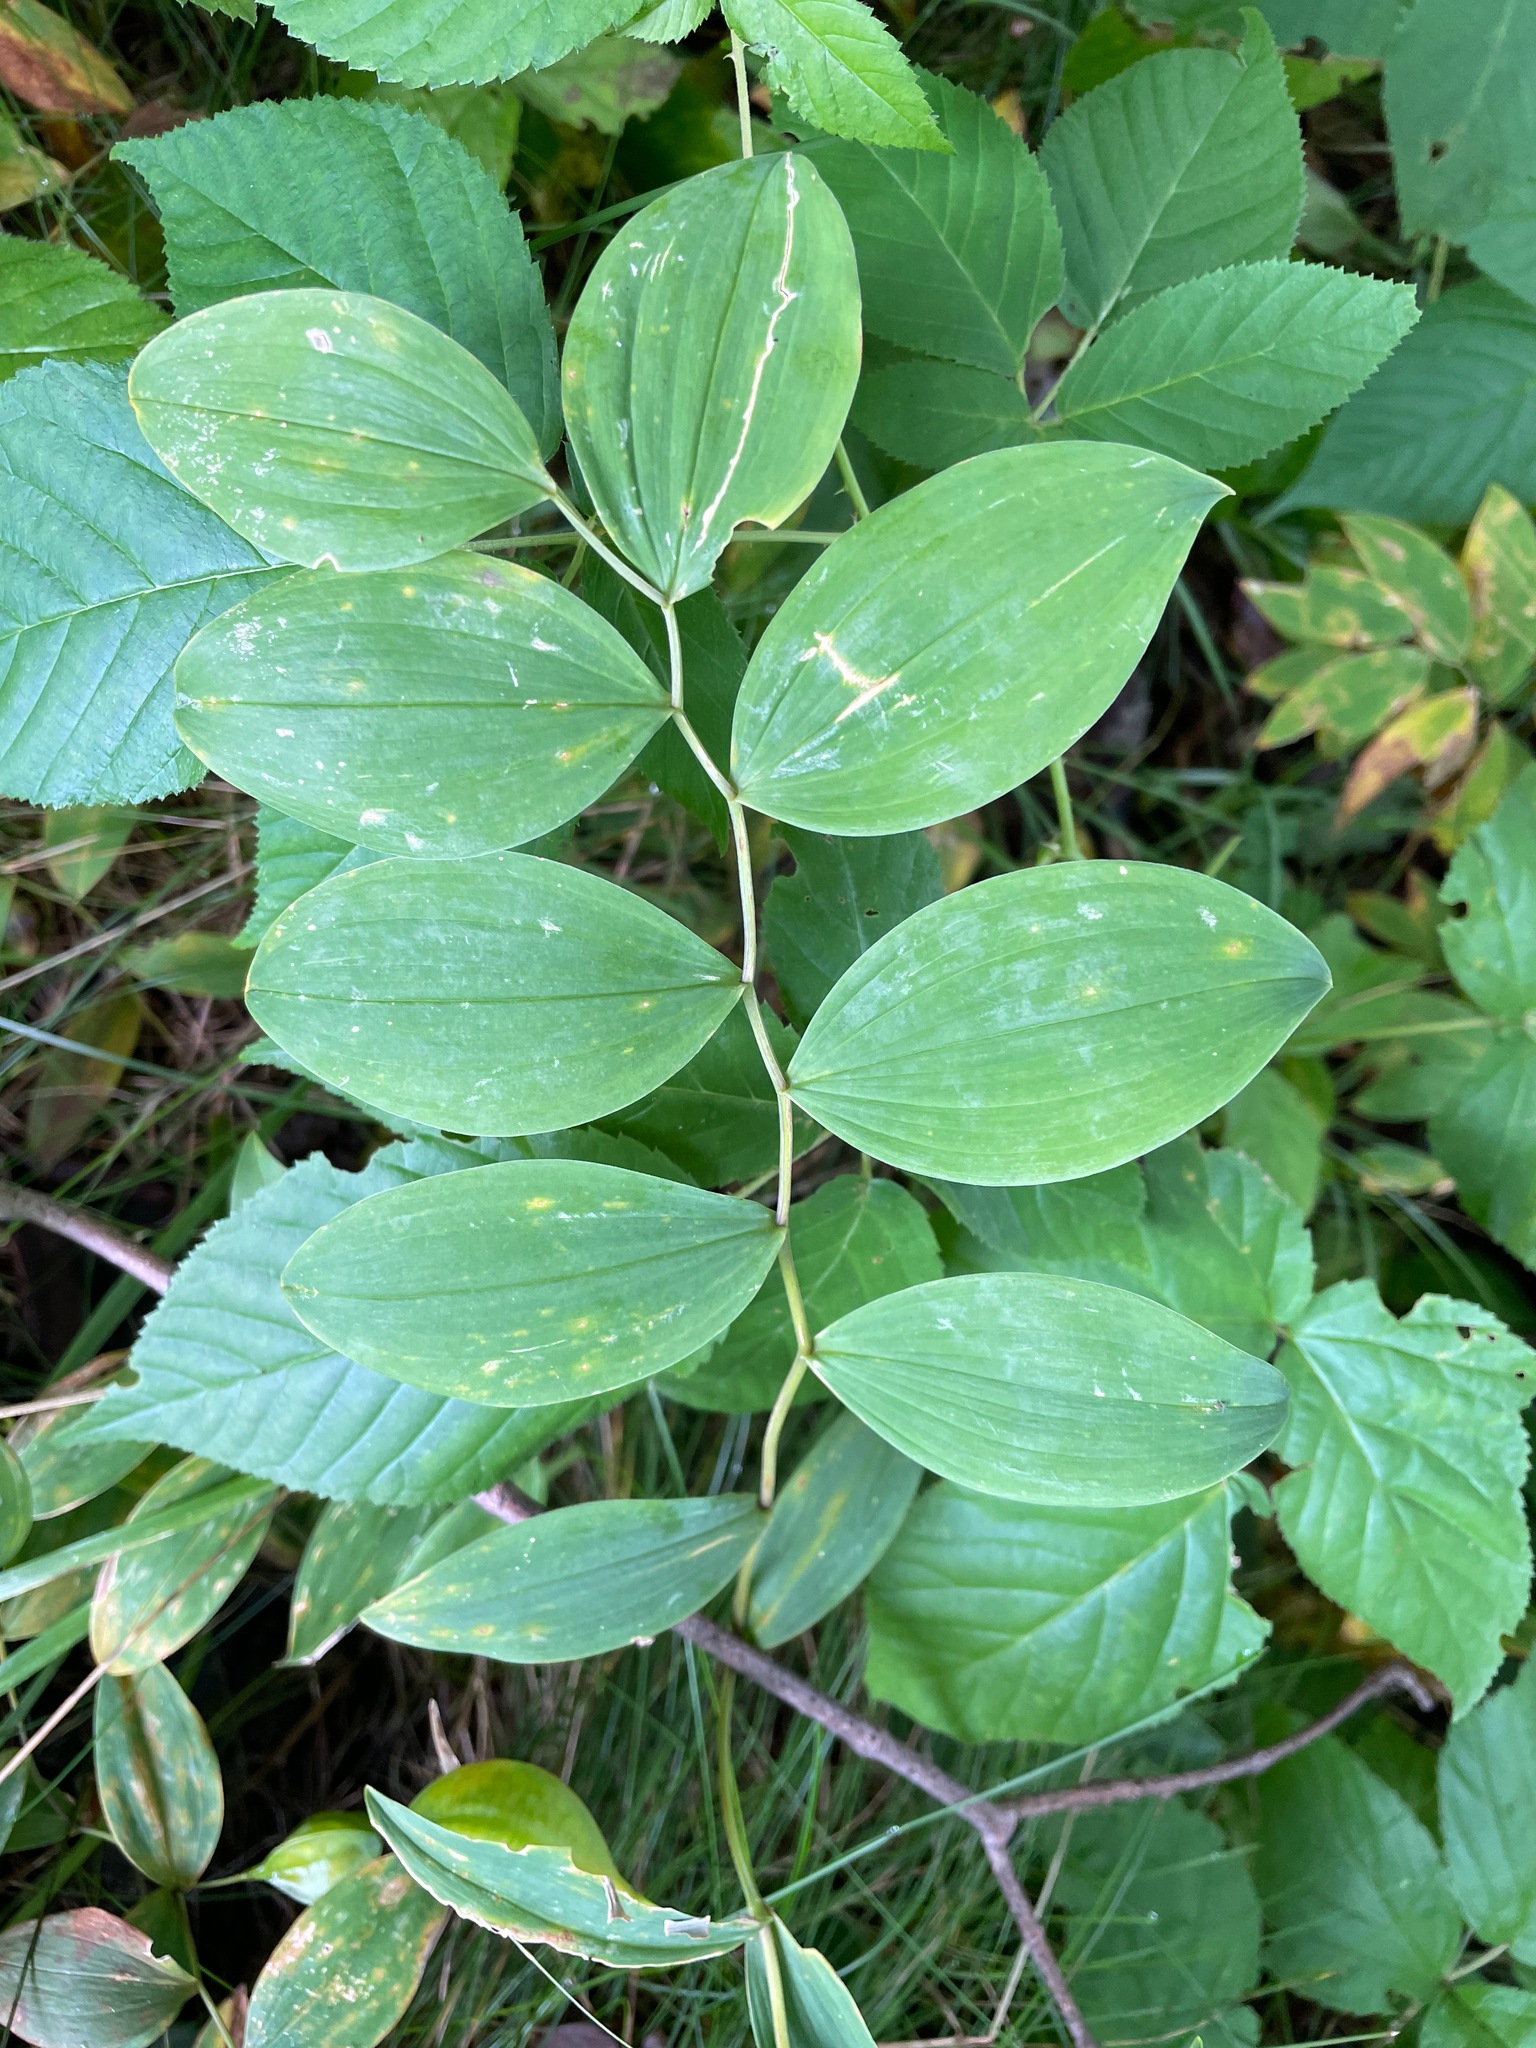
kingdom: Plantae
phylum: Tracheophyta
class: Liliopsida
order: Liliales
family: Colchicaceae
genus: Uvularia
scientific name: Uvularia sessilifolia
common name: Straw-lily
